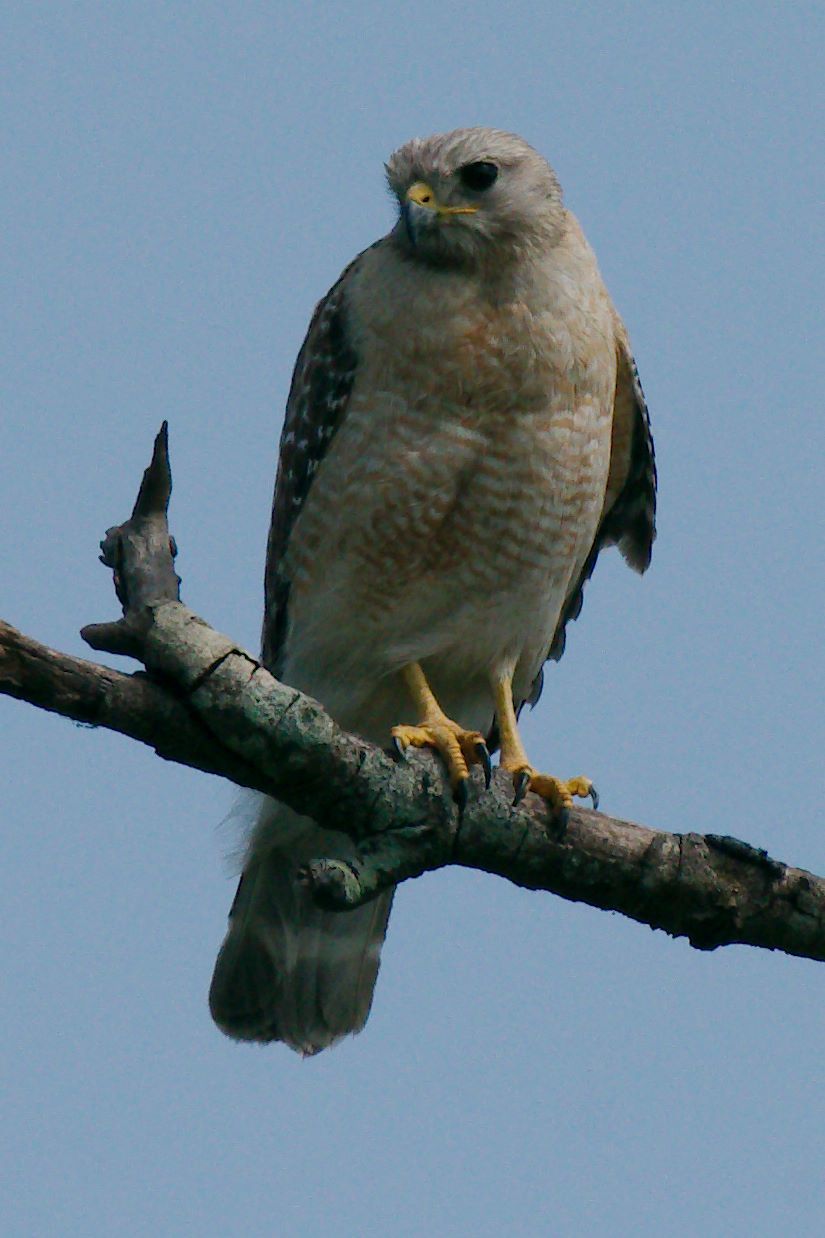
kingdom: Animalia
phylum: Chordata
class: Aves
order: Accipitriformes
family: Accipitridae
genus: Buteo
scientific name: Buteo lineatus
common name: Red-shouldered hawk
